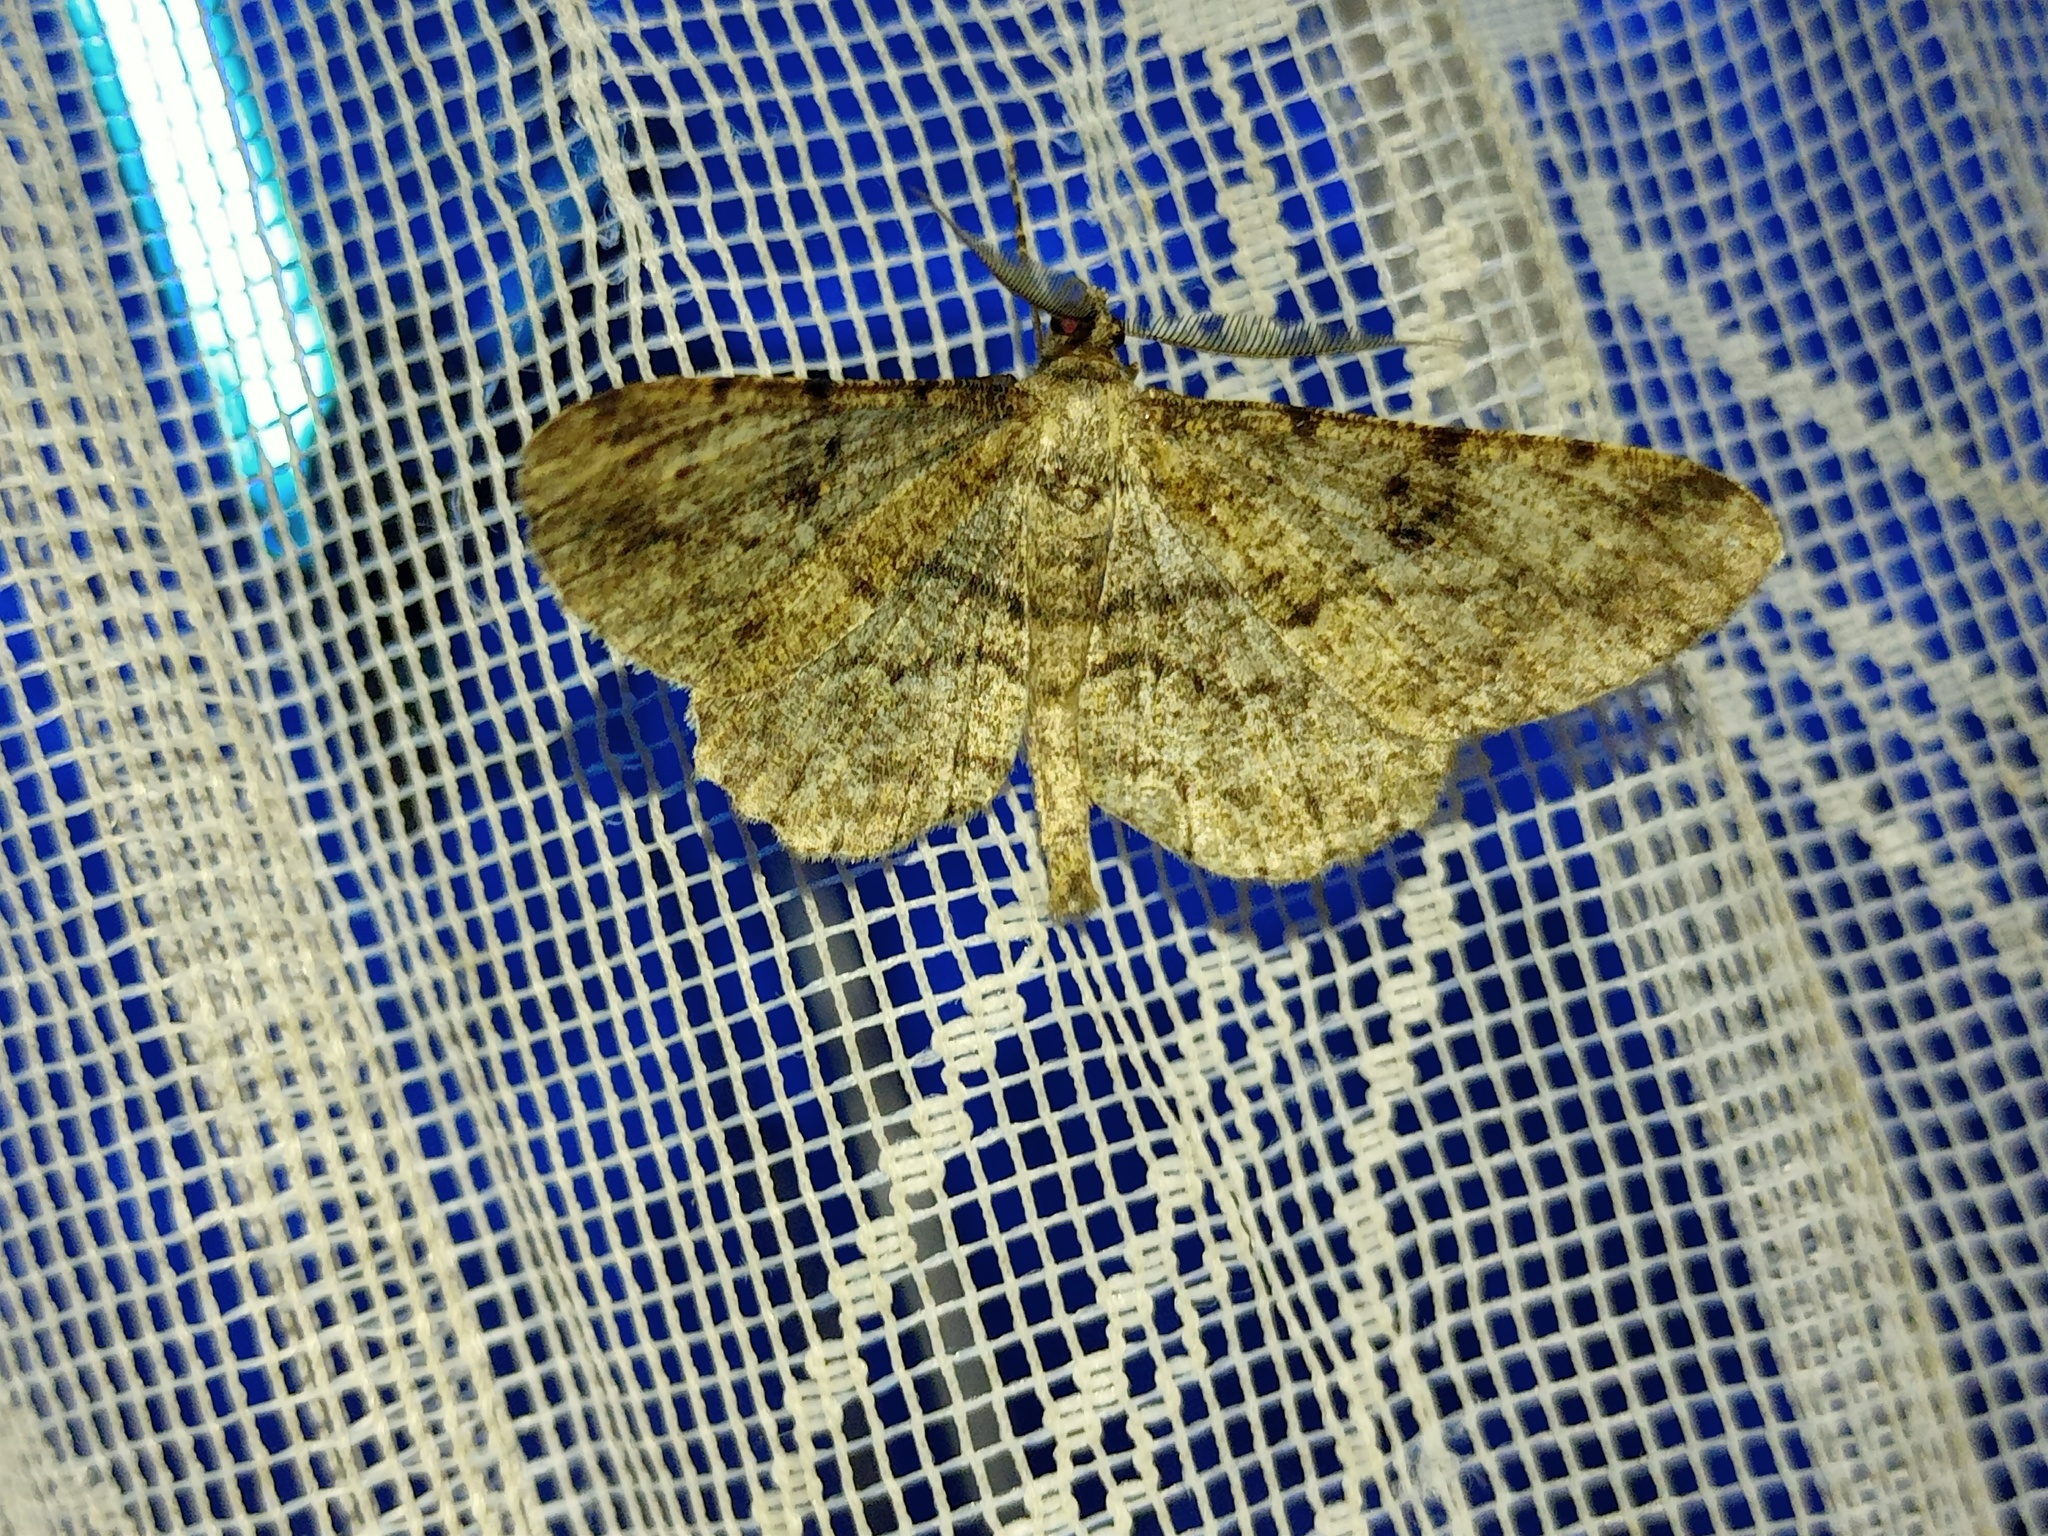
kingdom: Animalia
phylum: Arthropoda
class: Insecta
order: Lepidoptera
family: Geometridae
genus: Peribatodes
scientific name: Peribatodes rhomboidaria
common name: Willow beauty
